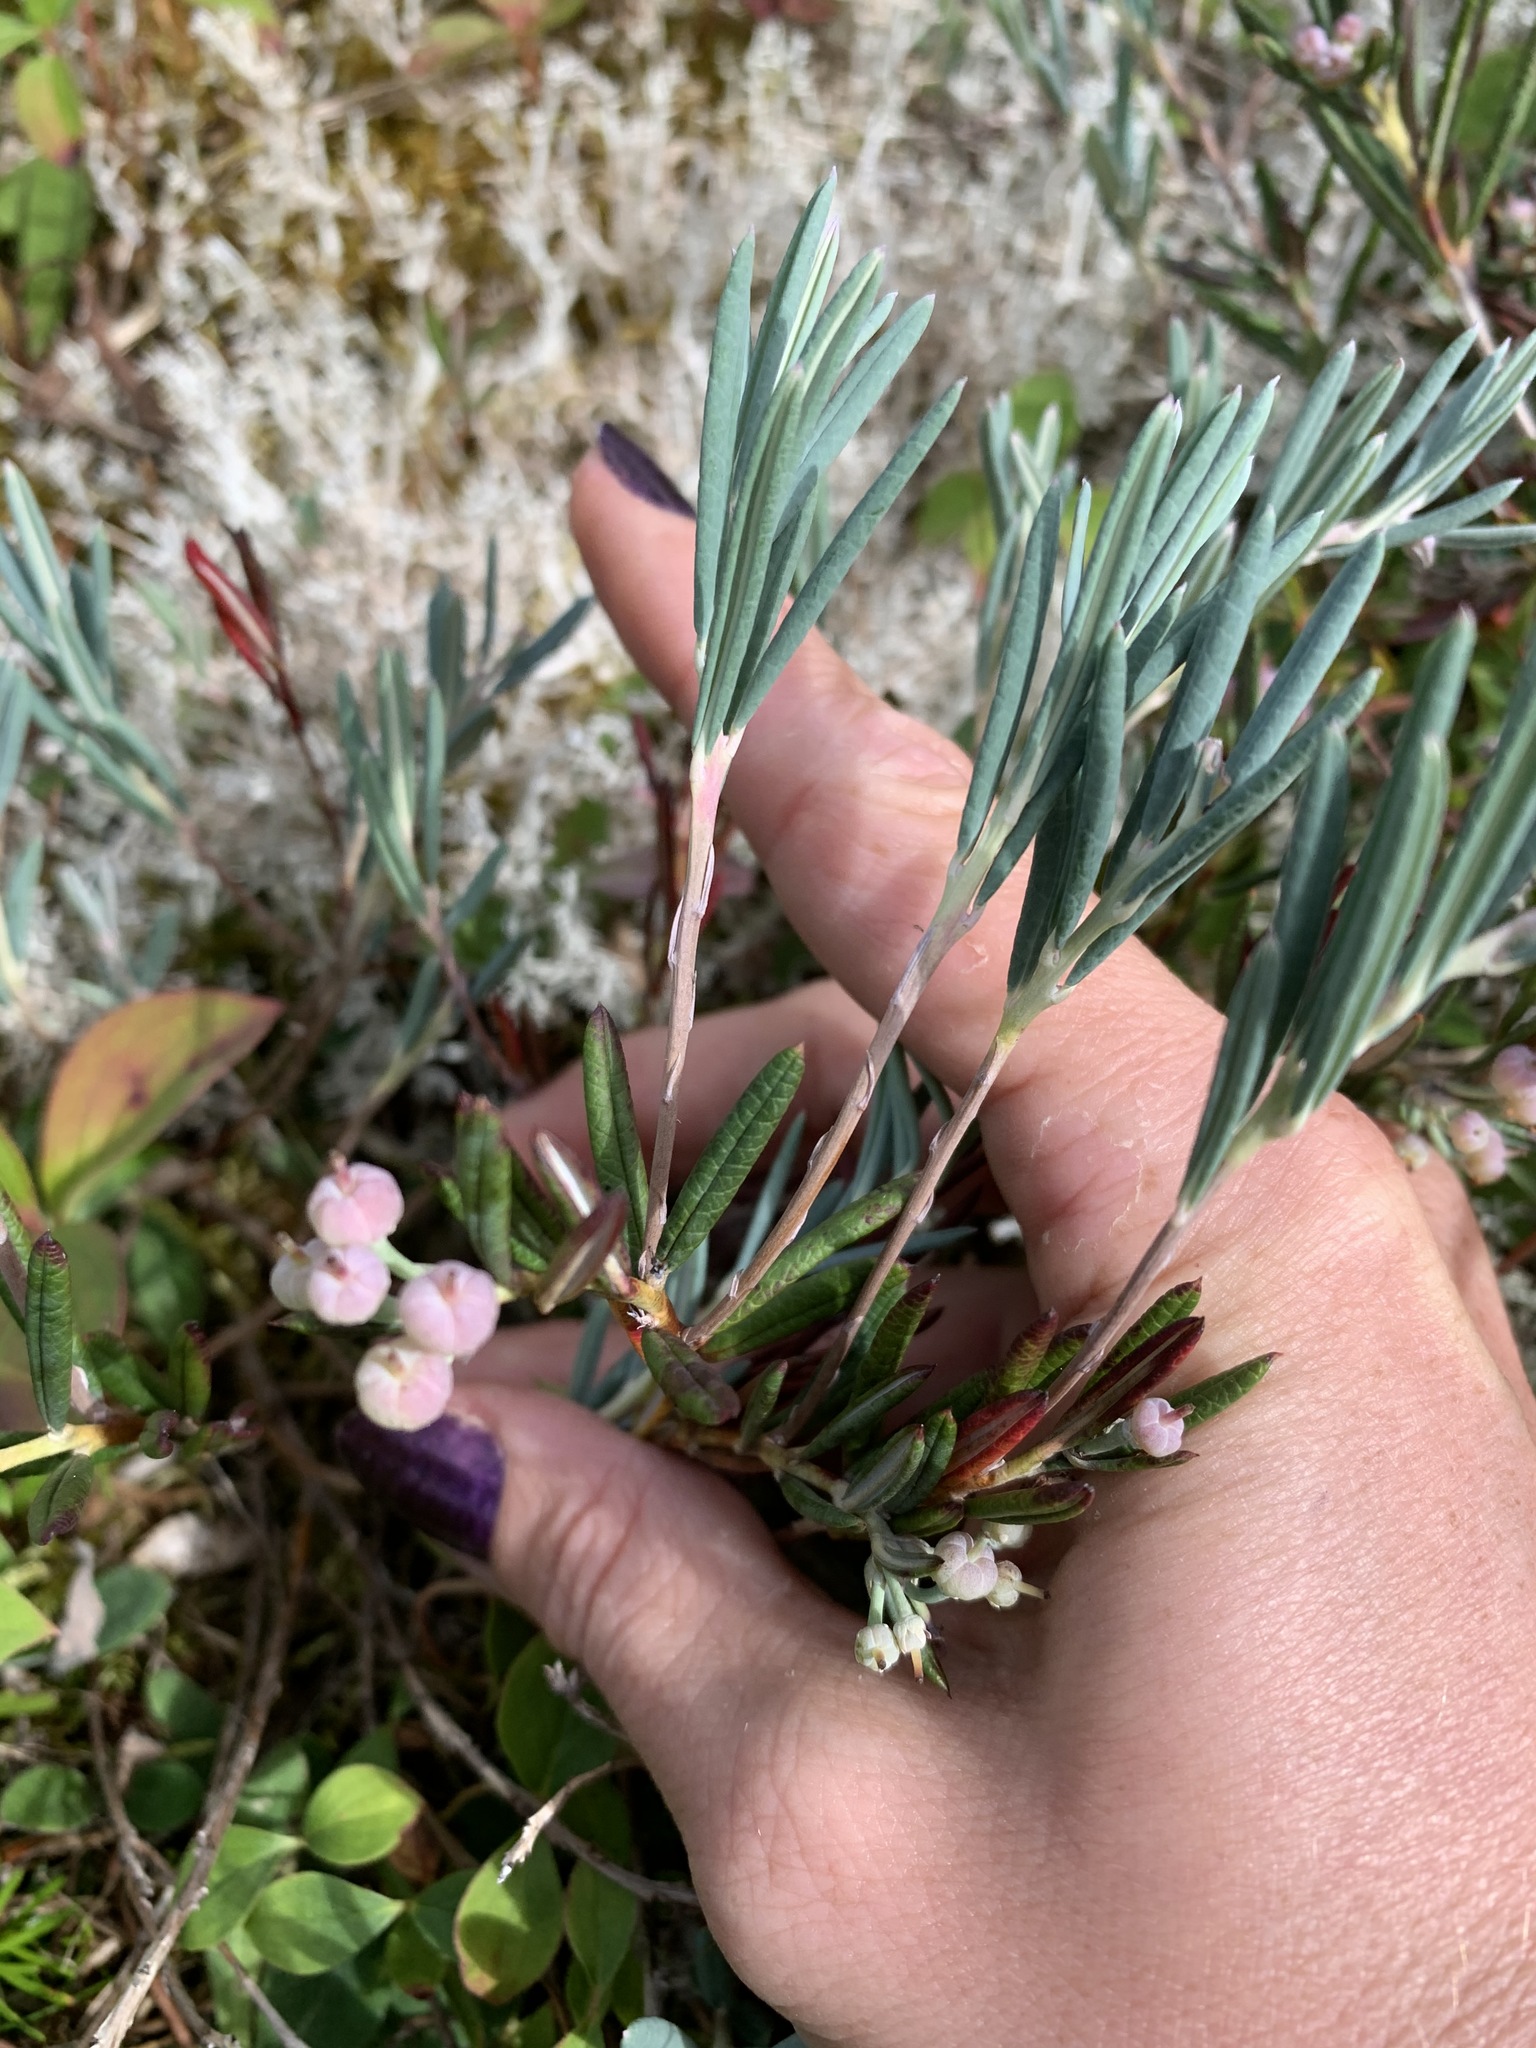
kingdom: Plantae
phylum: Tracheophyta
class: Magnoliopsida
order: Ericales
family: Ericaceae
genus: Andromeda
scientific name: Andromeda polifolia
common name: Bog-rosemary
